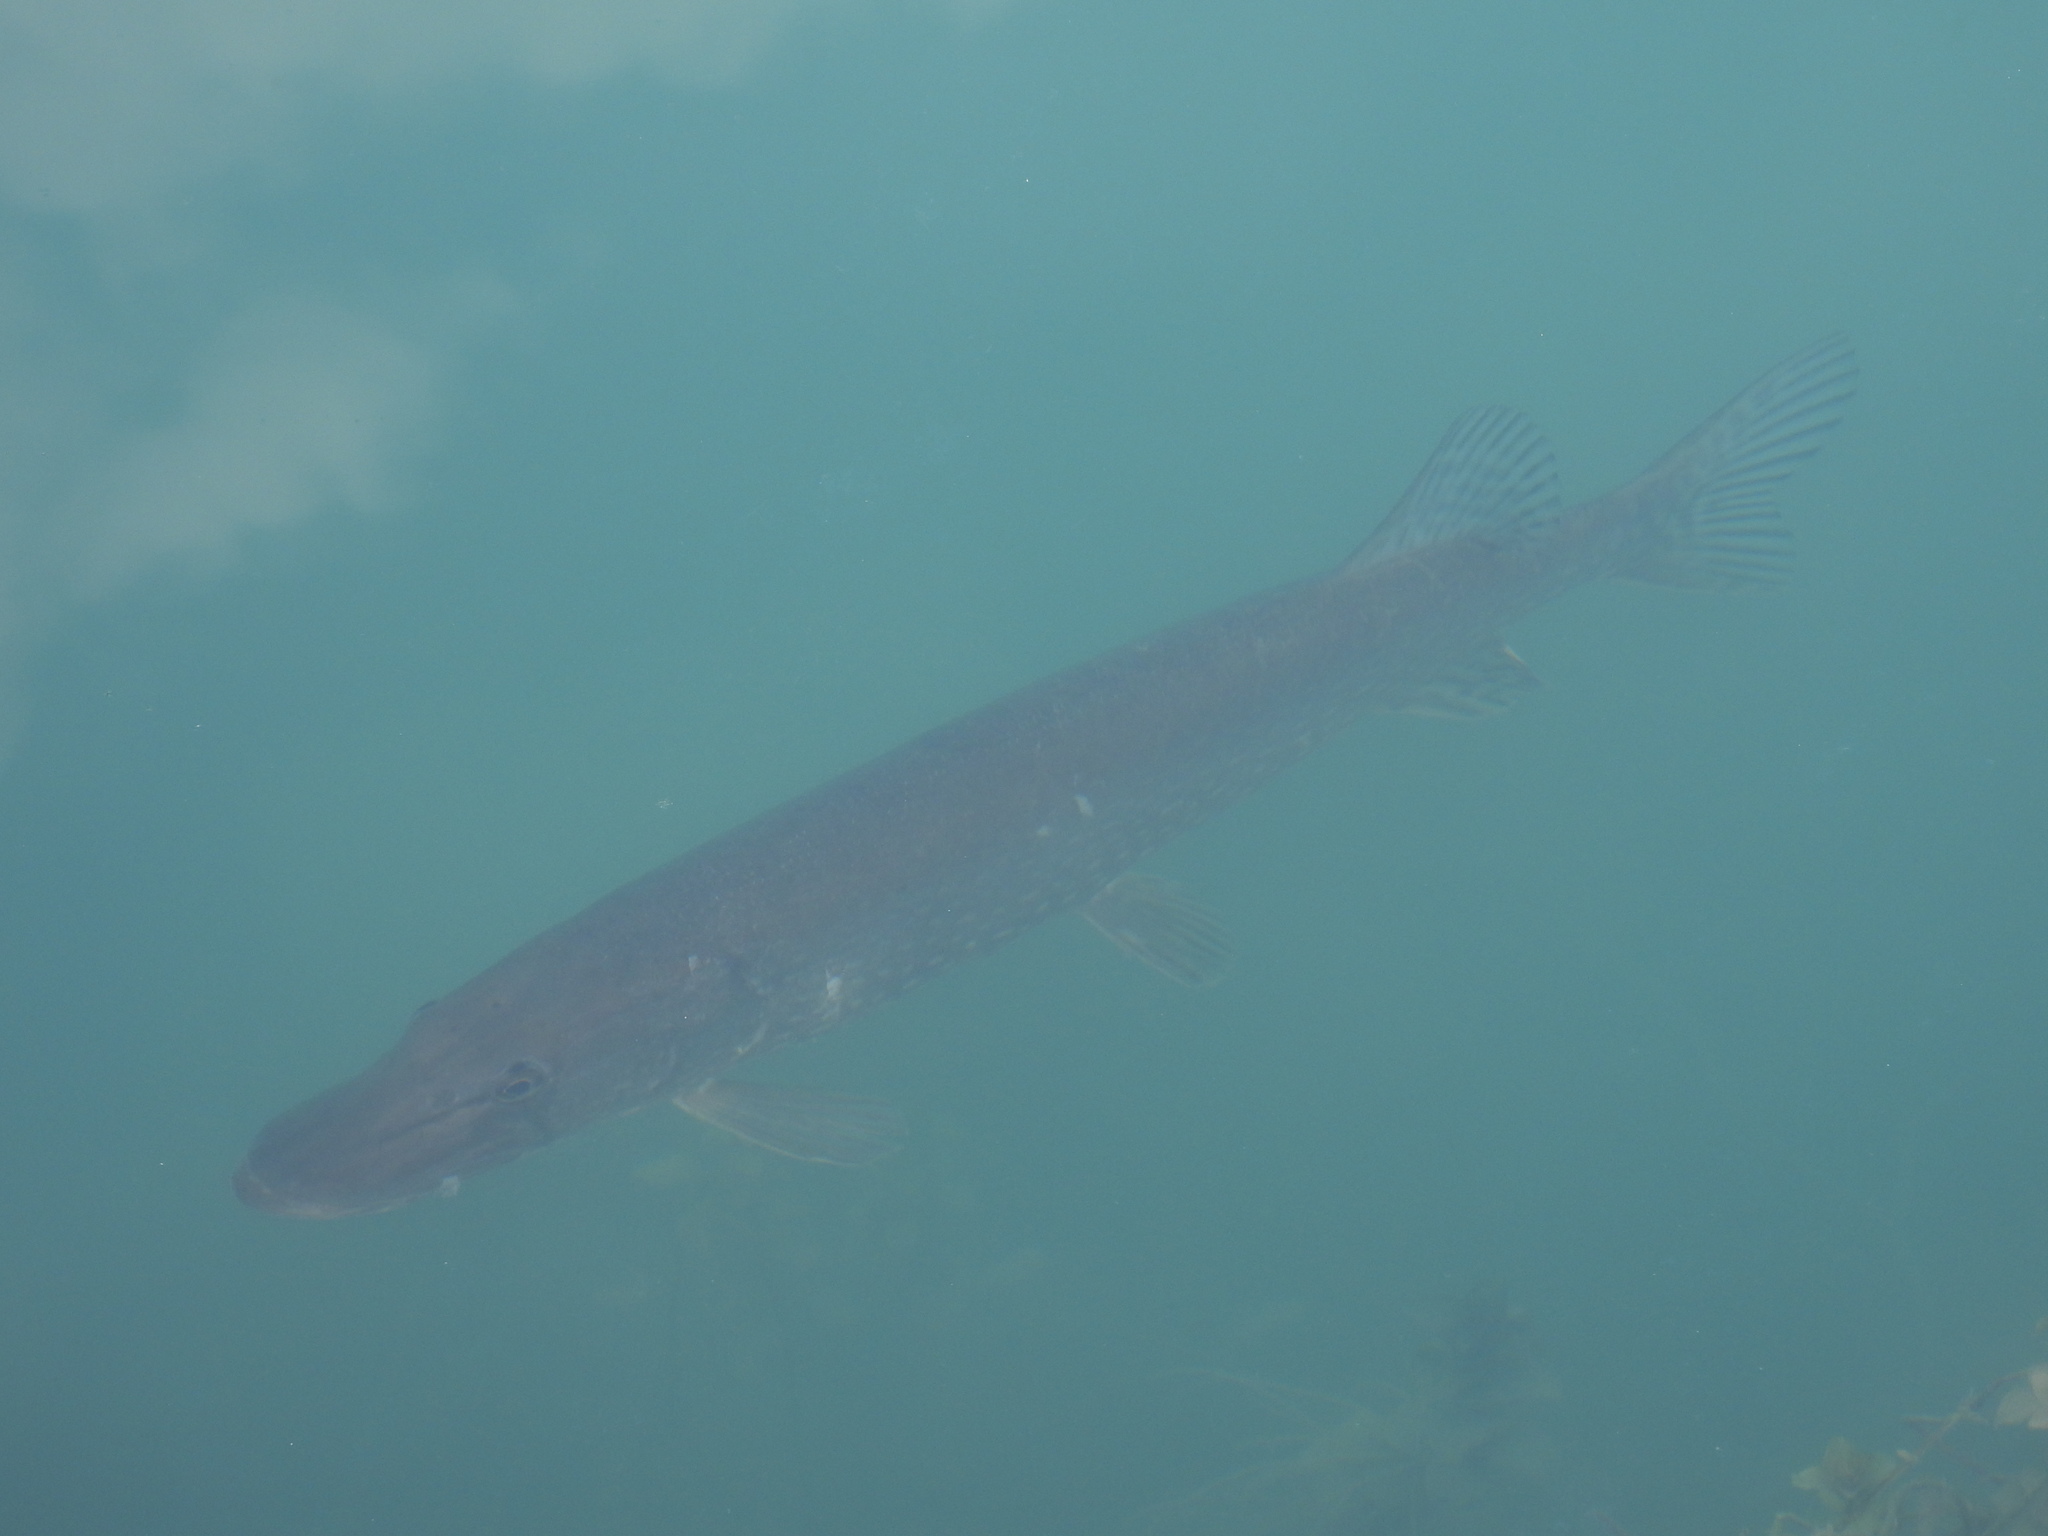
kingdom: Animalia
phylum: Chordata
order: Esociformes
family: Esocidae
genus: Esox
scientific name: Esox lucius
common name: Northern pike
